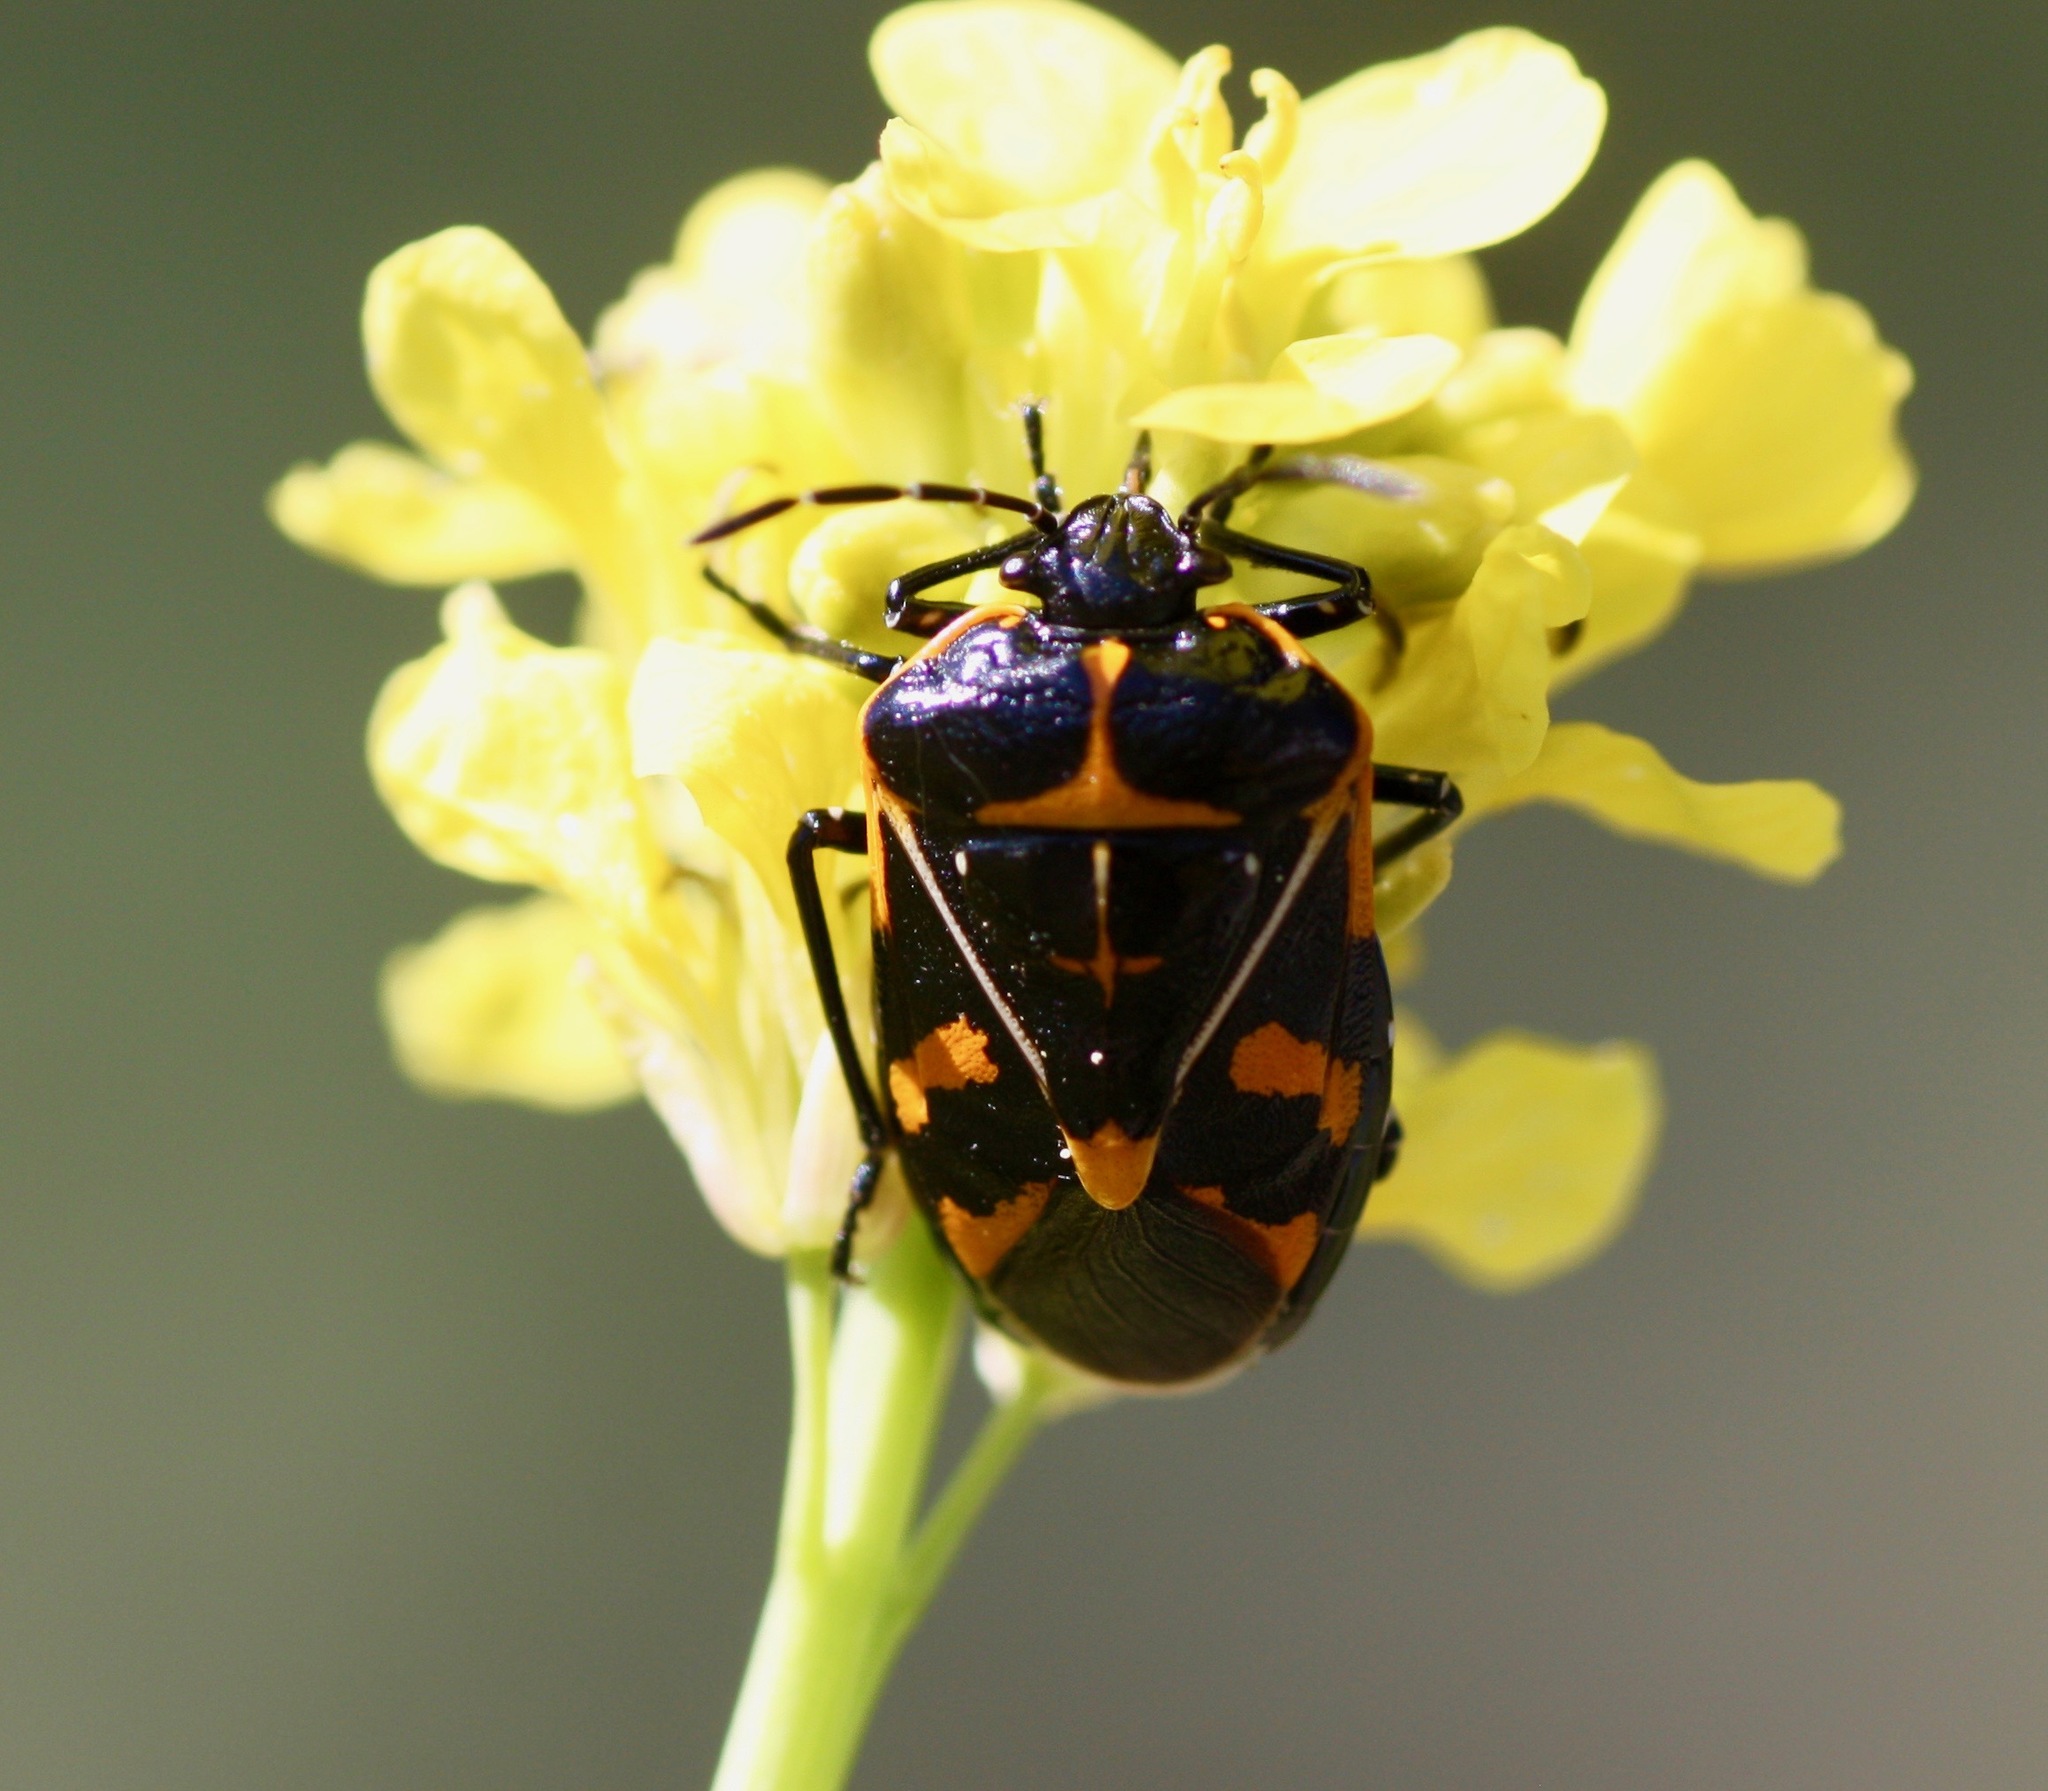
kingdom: Animalia
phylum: Arthropoda
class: Insecta
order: Hemiptera
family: Pentatomidae
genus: Murgantia
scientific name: Murgantia histrionica
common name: Harlequin bug
